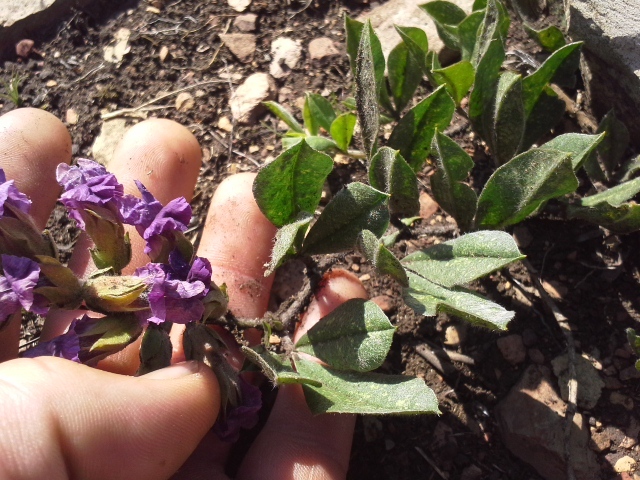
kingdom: Plantae
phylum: Tracheophyta
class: Magnoliopsida
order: Fabales
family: Fabaceae
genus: Pearsonia
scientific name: Pearsonia grandifolia
